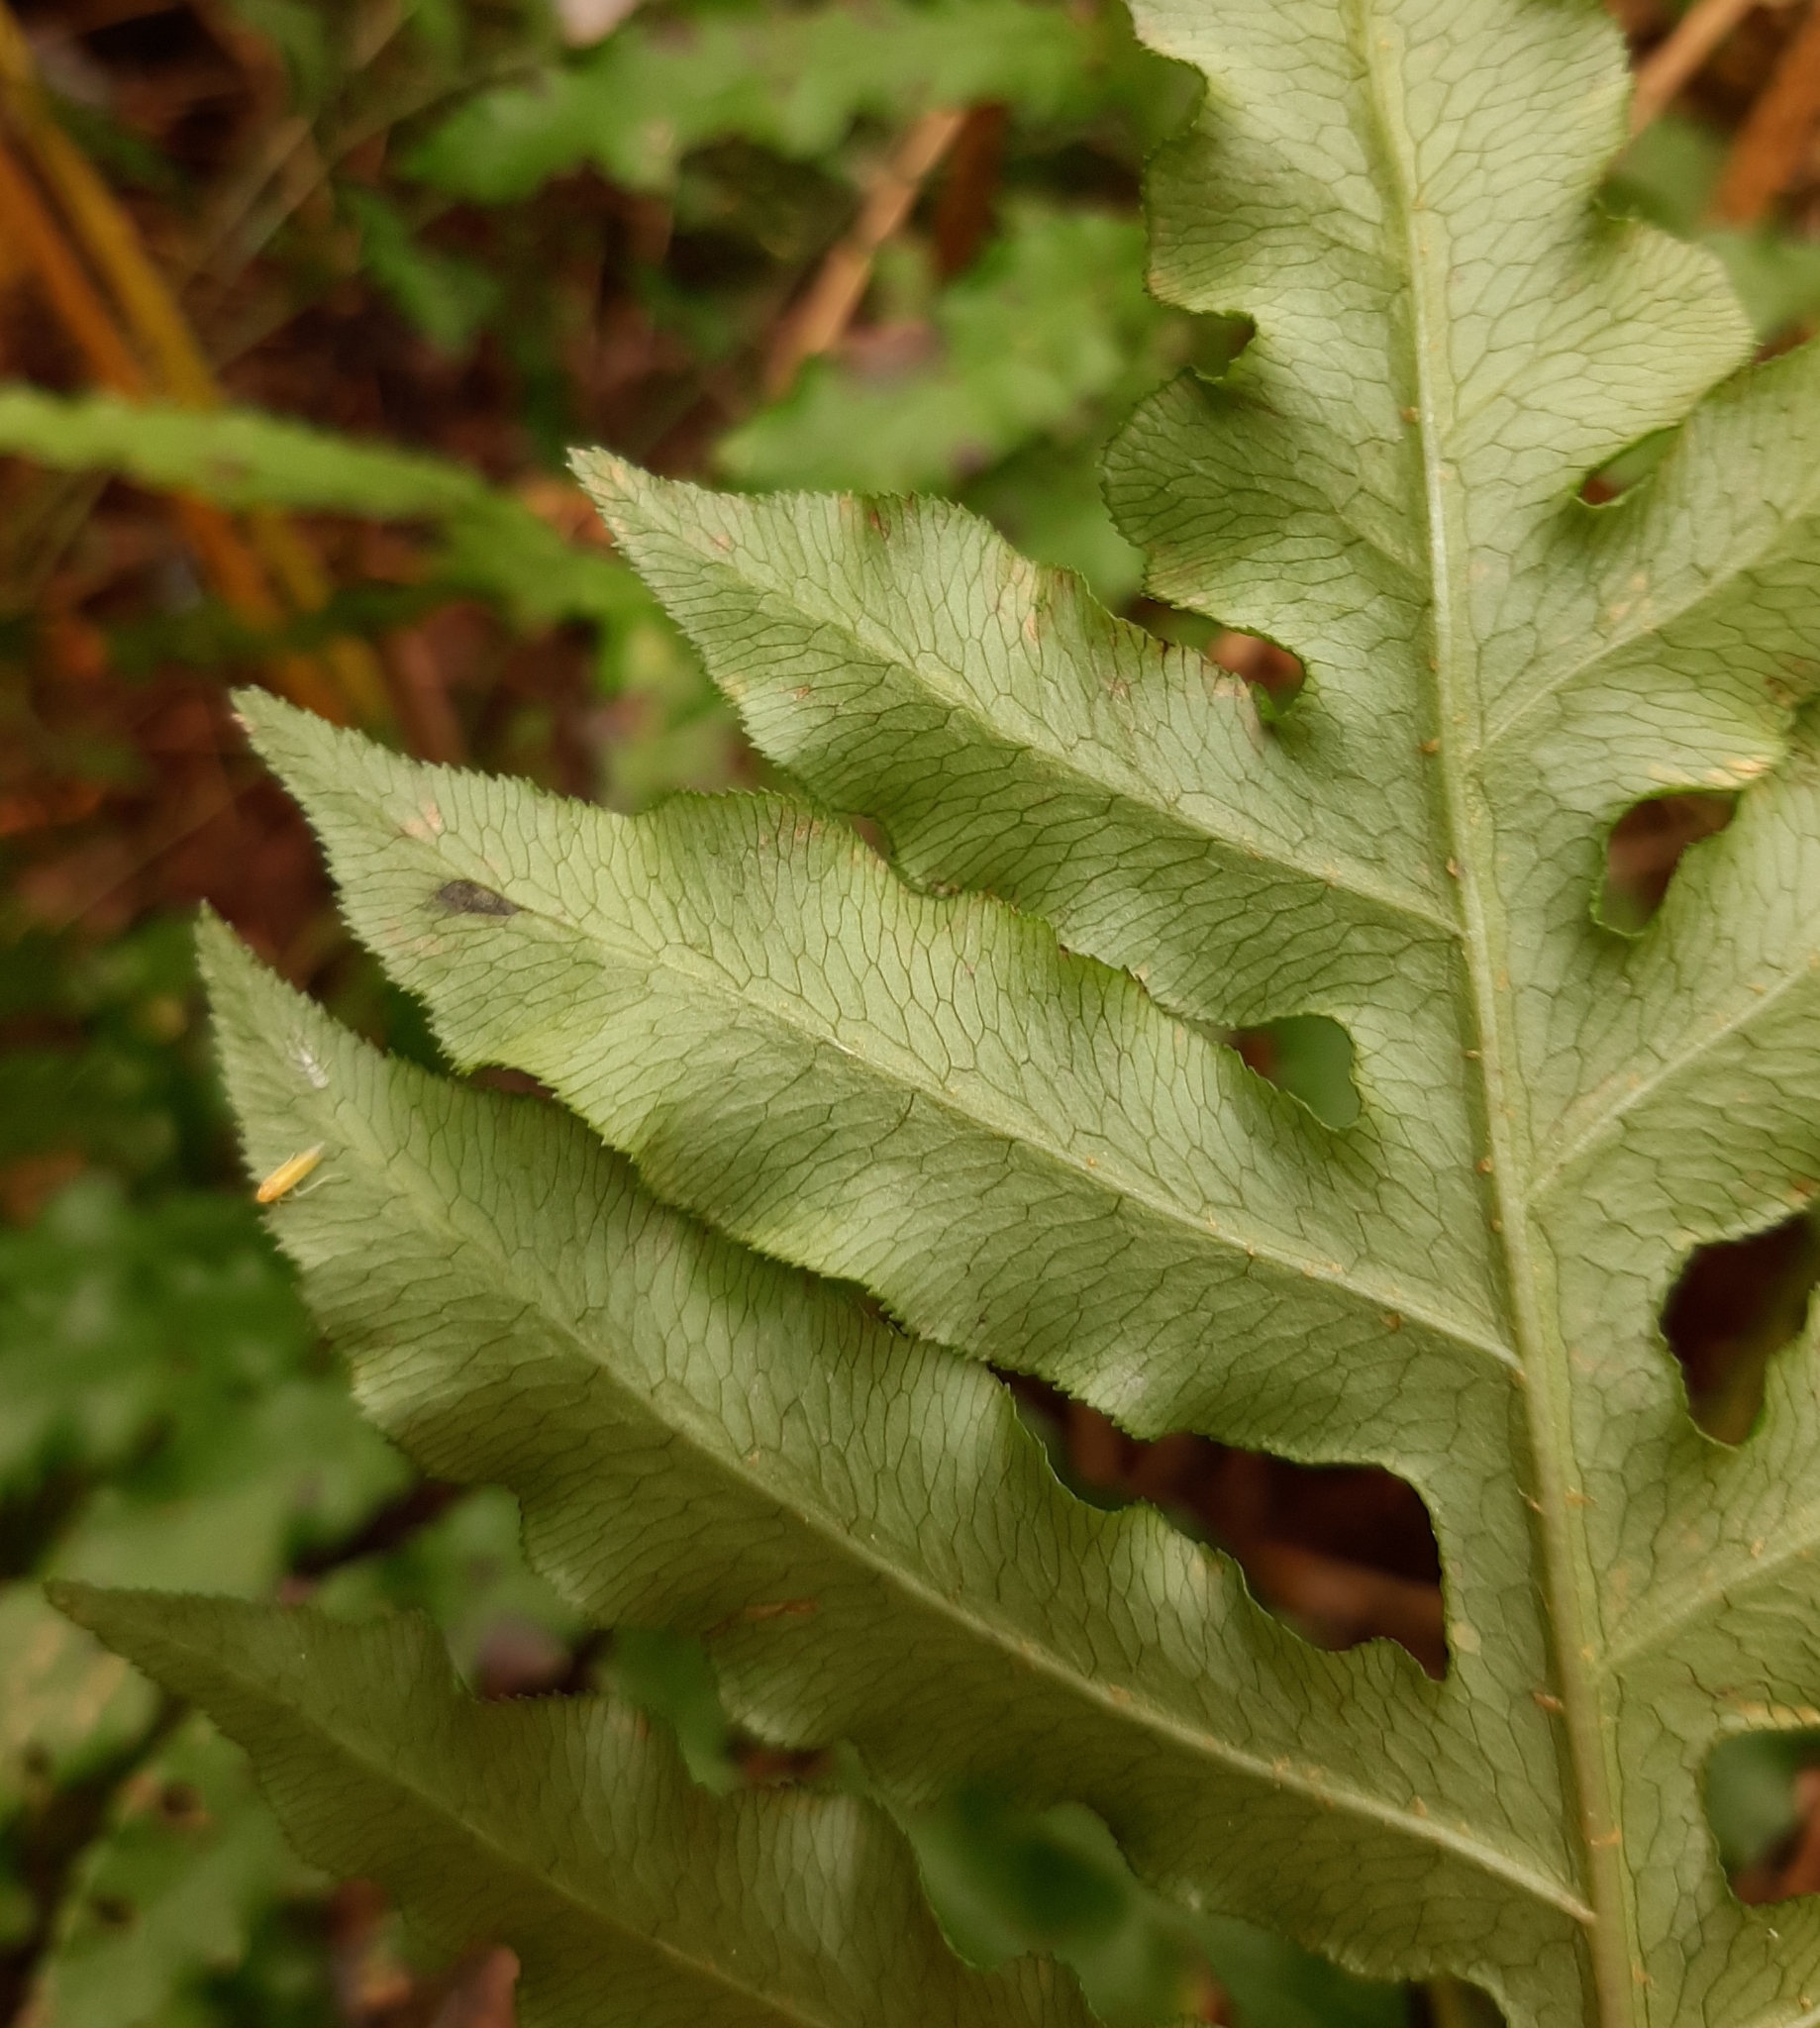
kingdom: Plantae
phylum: Tracheophyta
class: Polypodiopsida
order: Polypodiales
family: Blechnaceae
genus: Lorinseria
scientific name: Lorinseria areolata
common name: Dwarf chain fern
